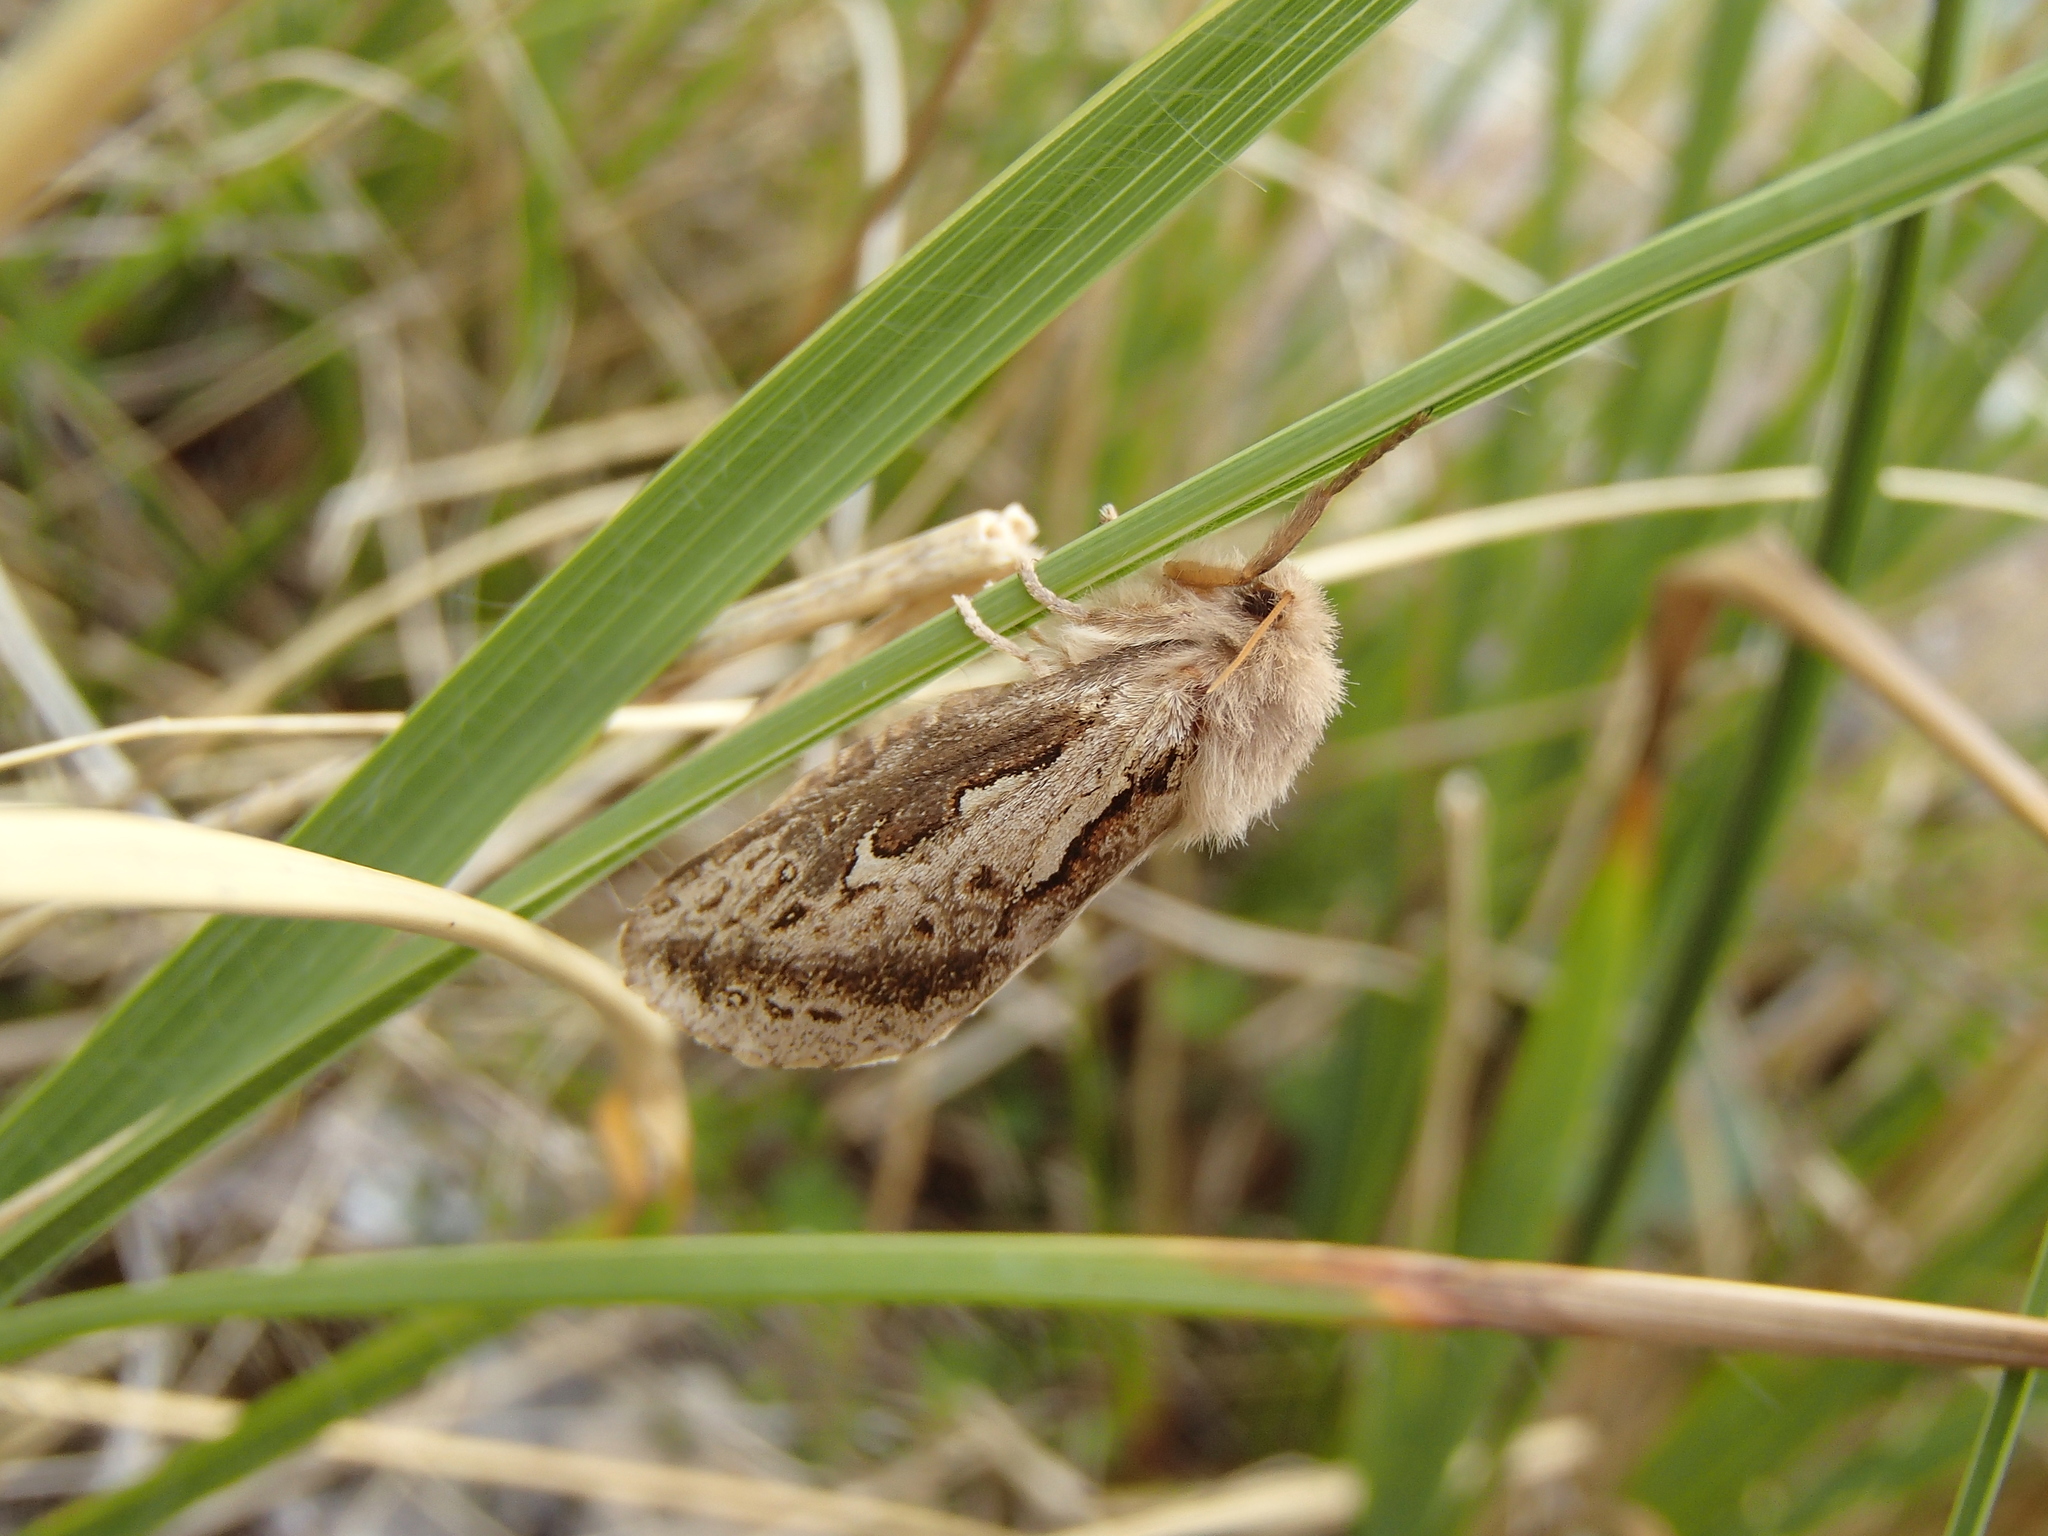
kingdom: Animalia
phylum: Arthropoda
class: Insecta
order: Lepidoptera
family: Hepialidae
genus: Dioxycanus
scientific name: Dioxycanus oreas
